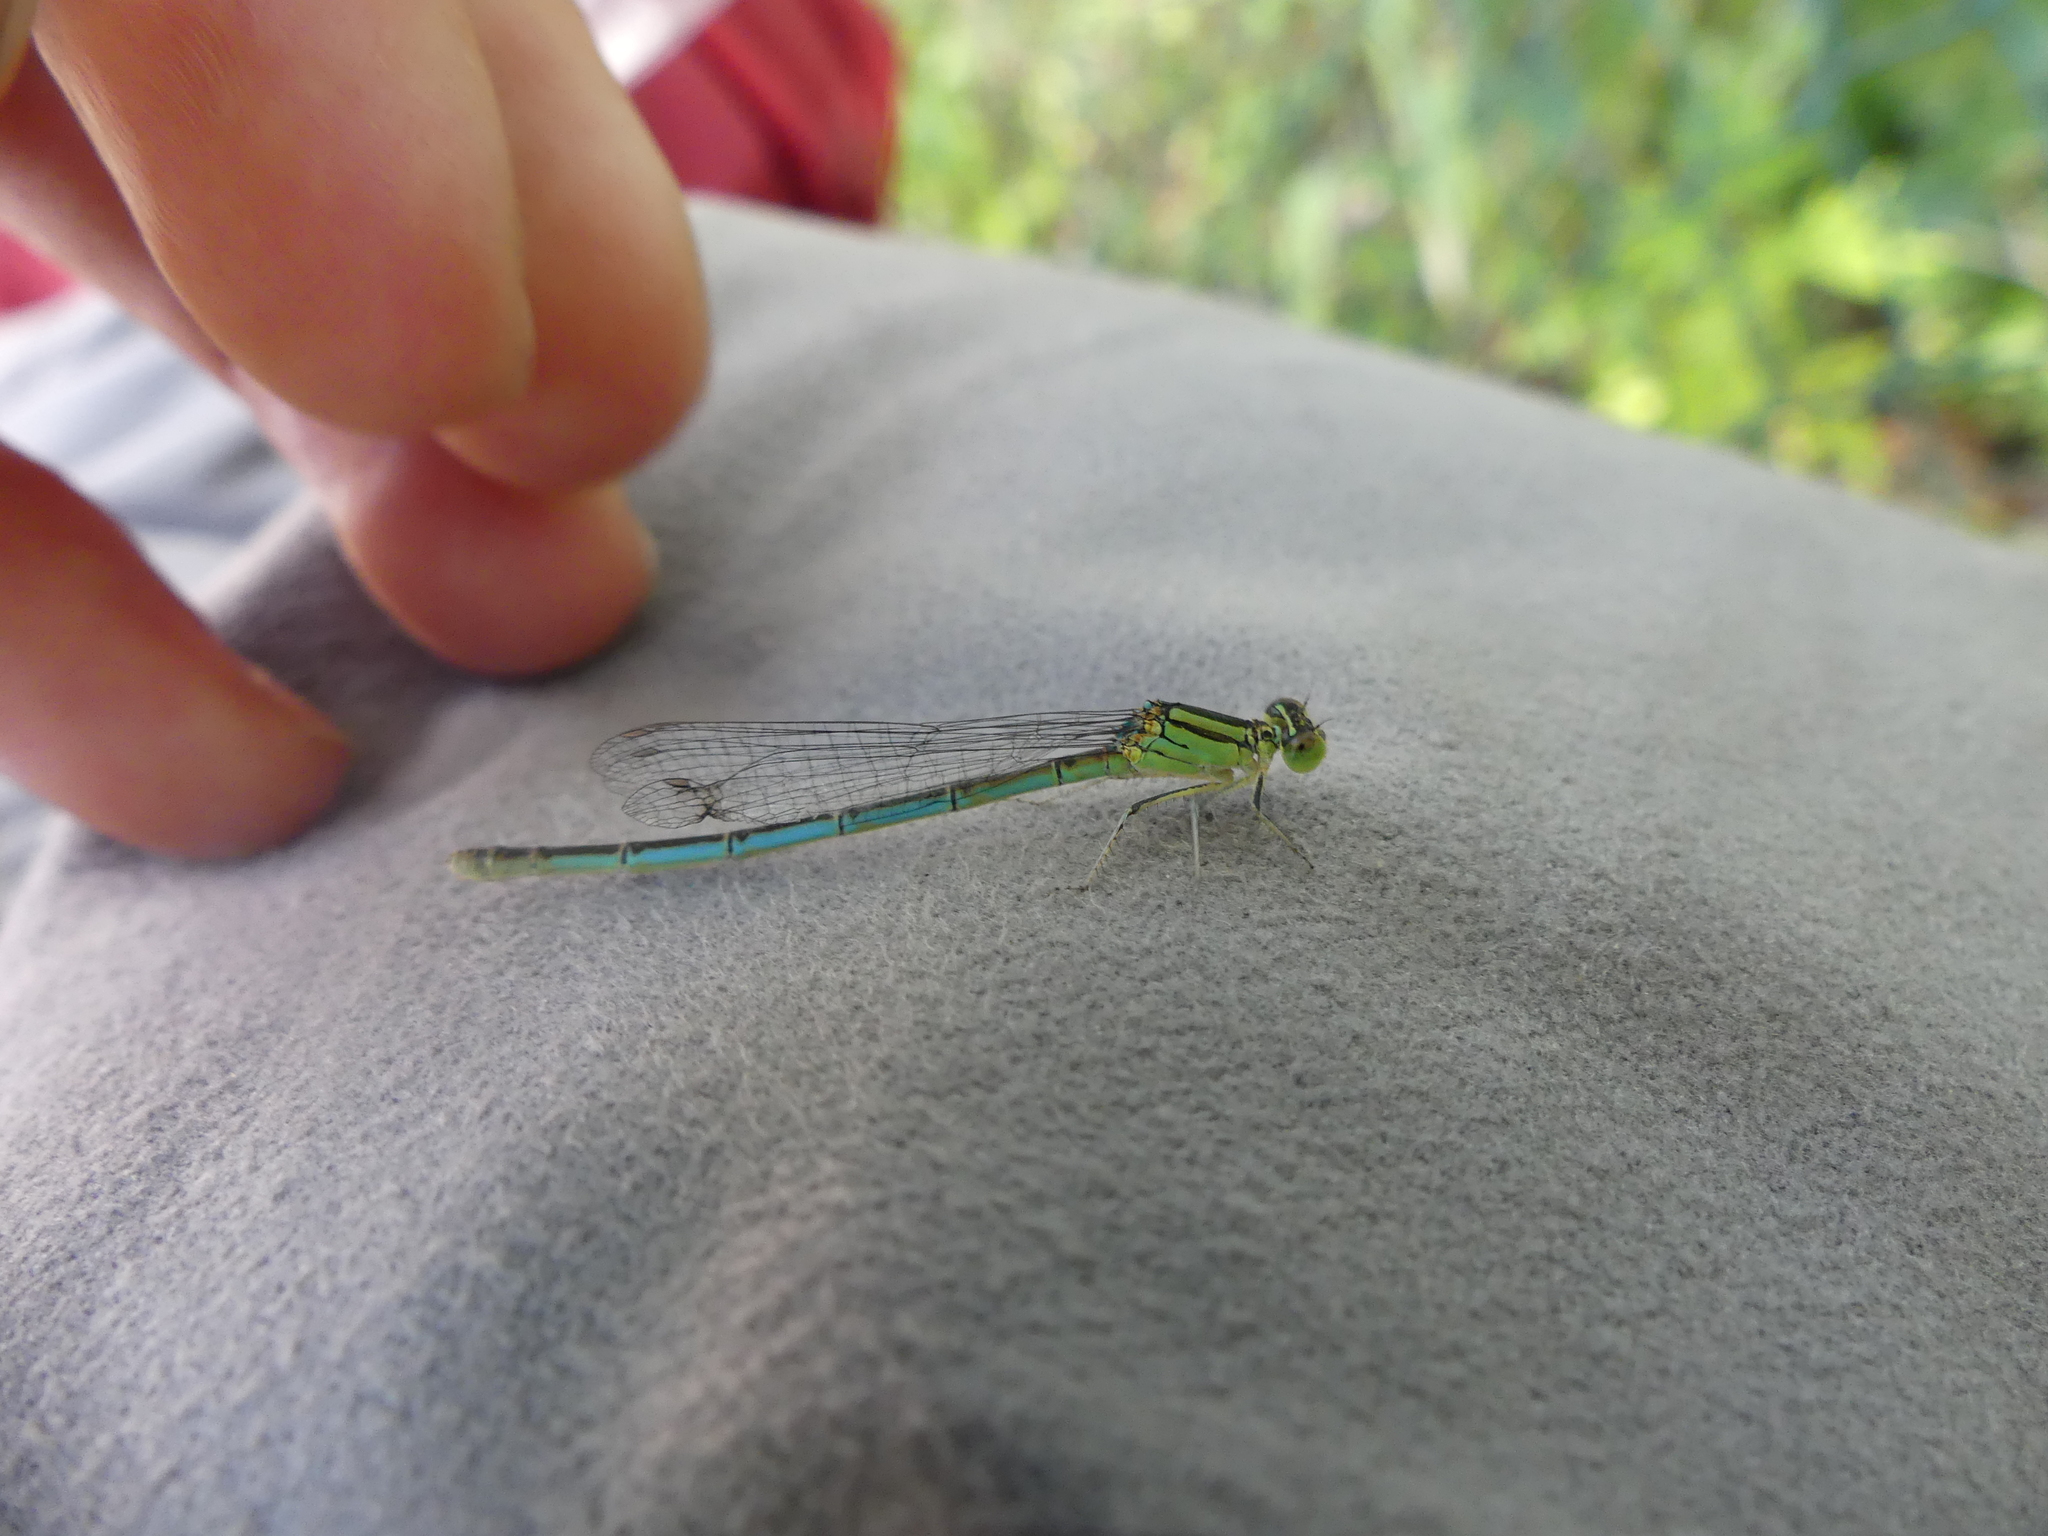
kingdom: Animalia
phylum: Arthropoda
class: Insecta
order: Odonata
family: Coenagrionidae
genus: Erythromma
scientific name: Erythromma lindenii
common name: Blue-eye
